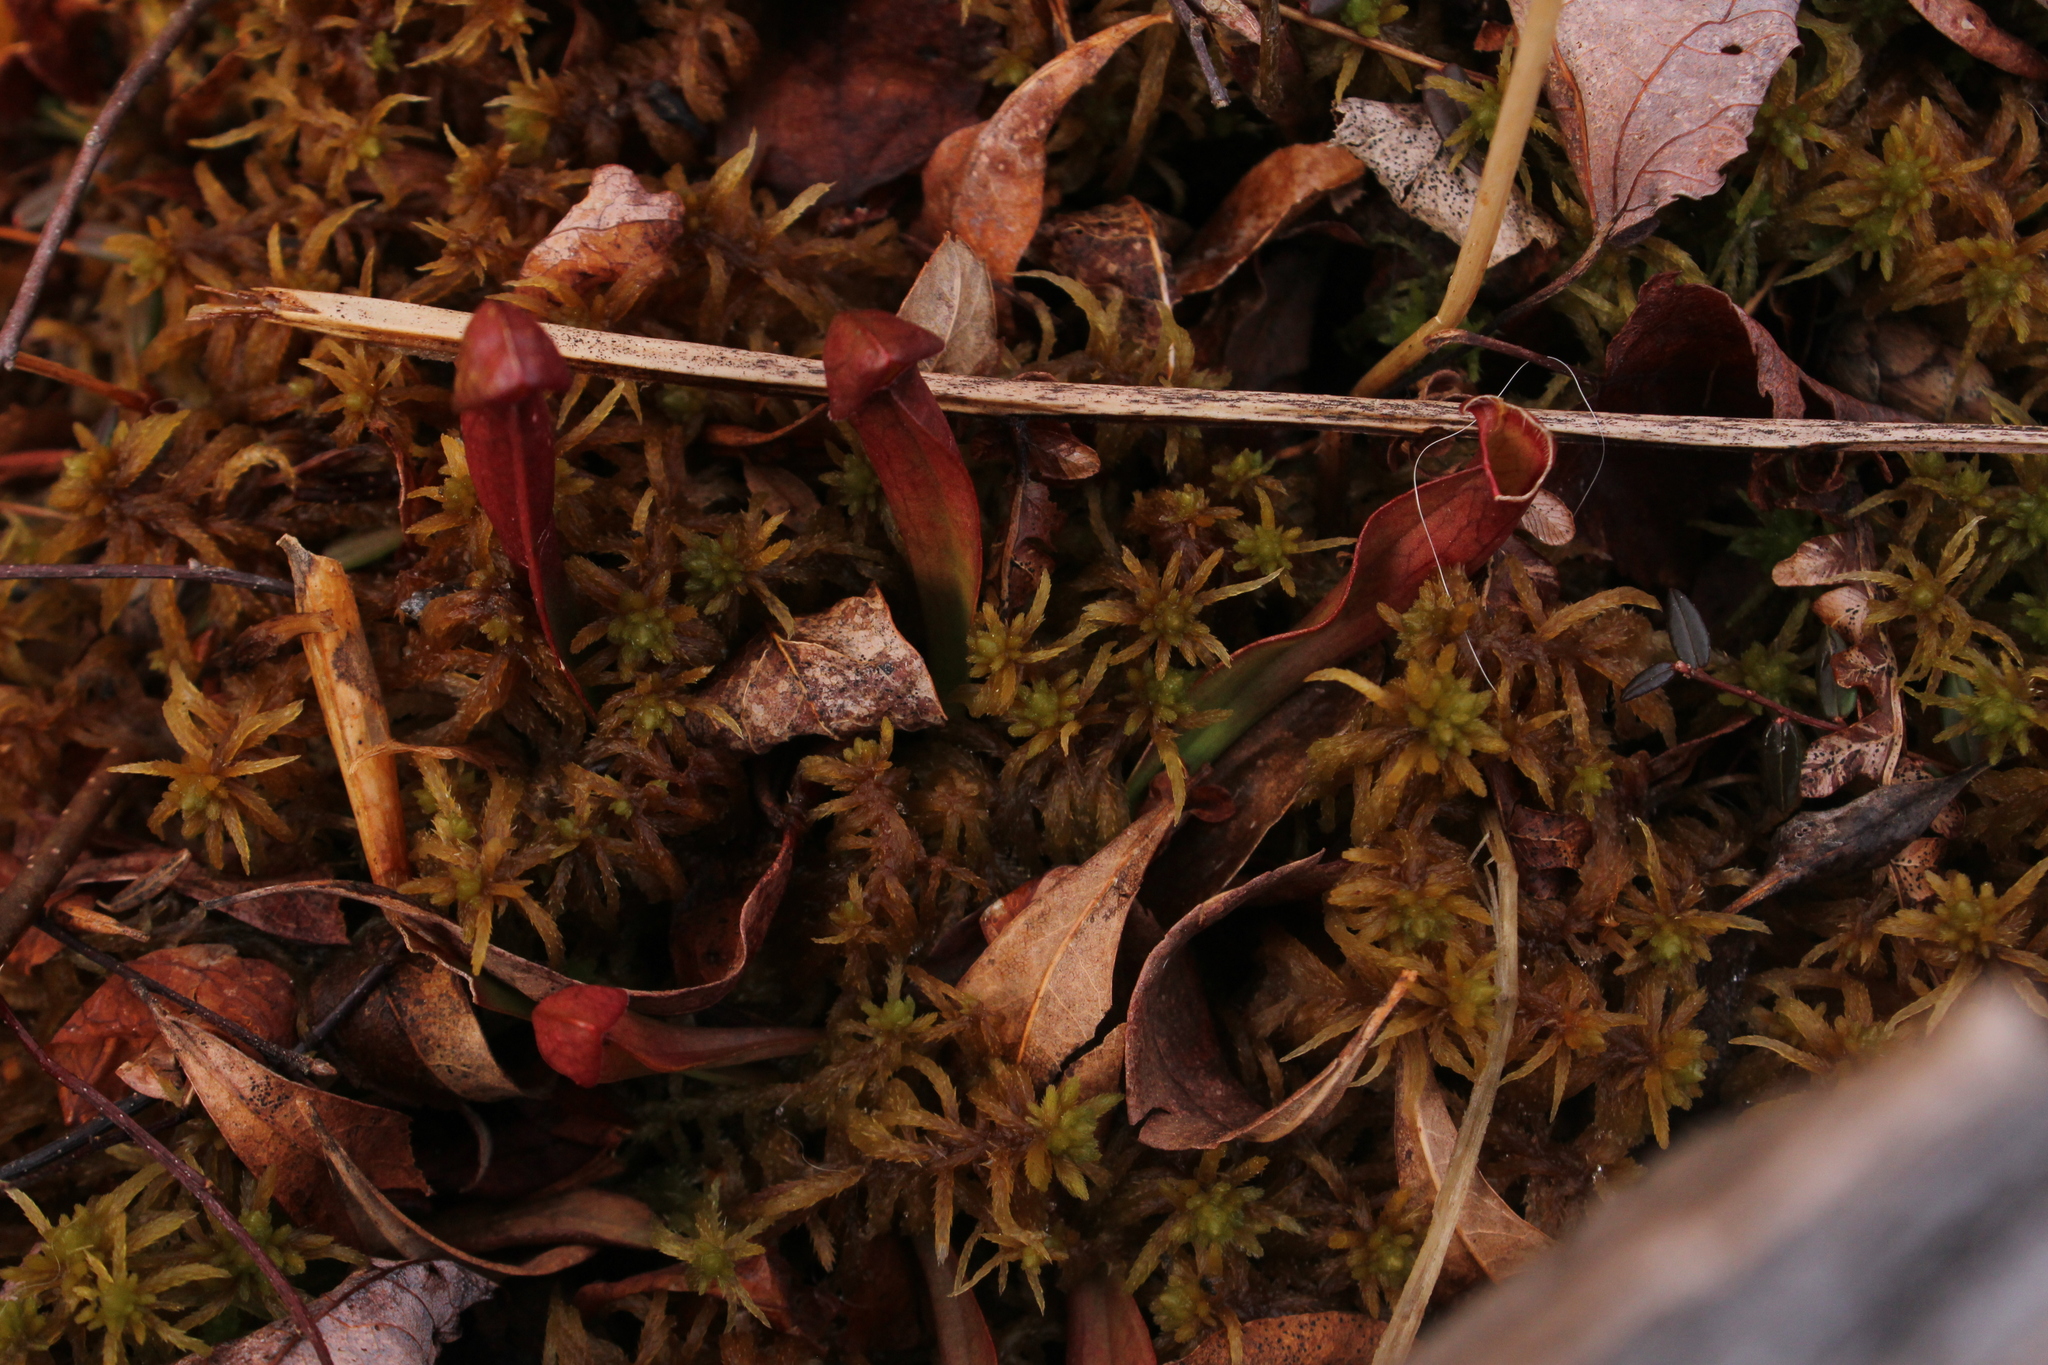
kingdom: Plantae
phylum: Tracheophyta
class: Magnoliopsida
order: Ericales
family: Sarraceniaceae
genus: Sarracenia
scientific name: Sarracenia purpurea
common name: Pitcherplant
